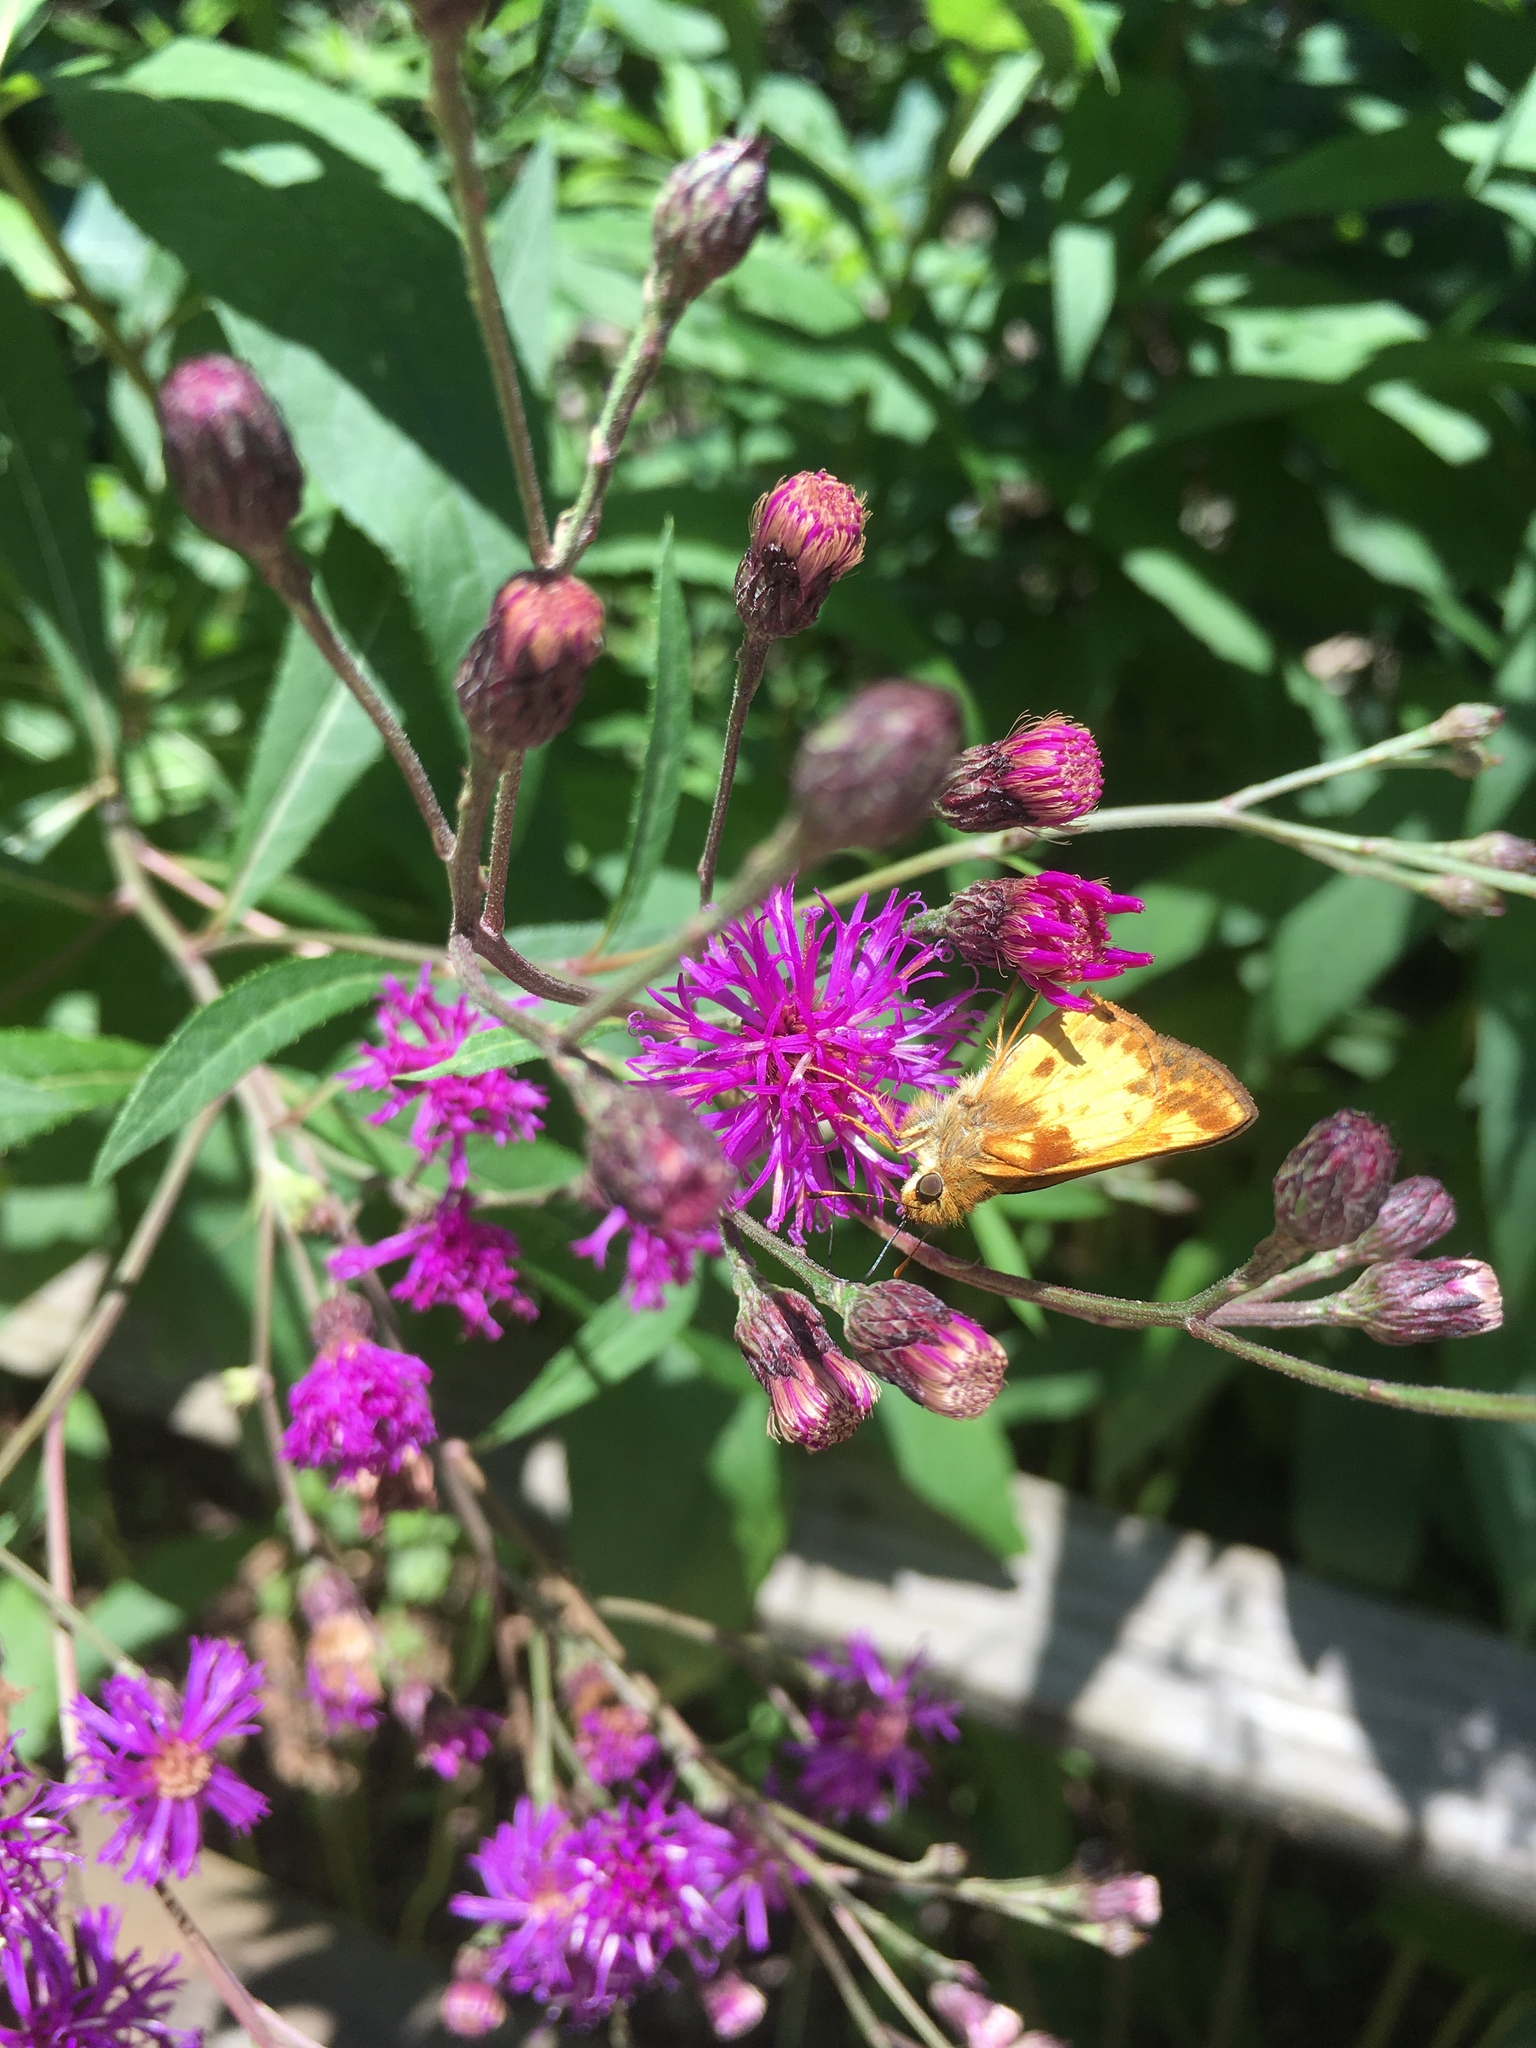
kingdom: Animalia
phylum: Arthropoda
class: Insecta
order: Lepidoptera
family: Hesperiidae
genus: Lon
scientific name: Lon zabulon
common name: Zabulon skipper
